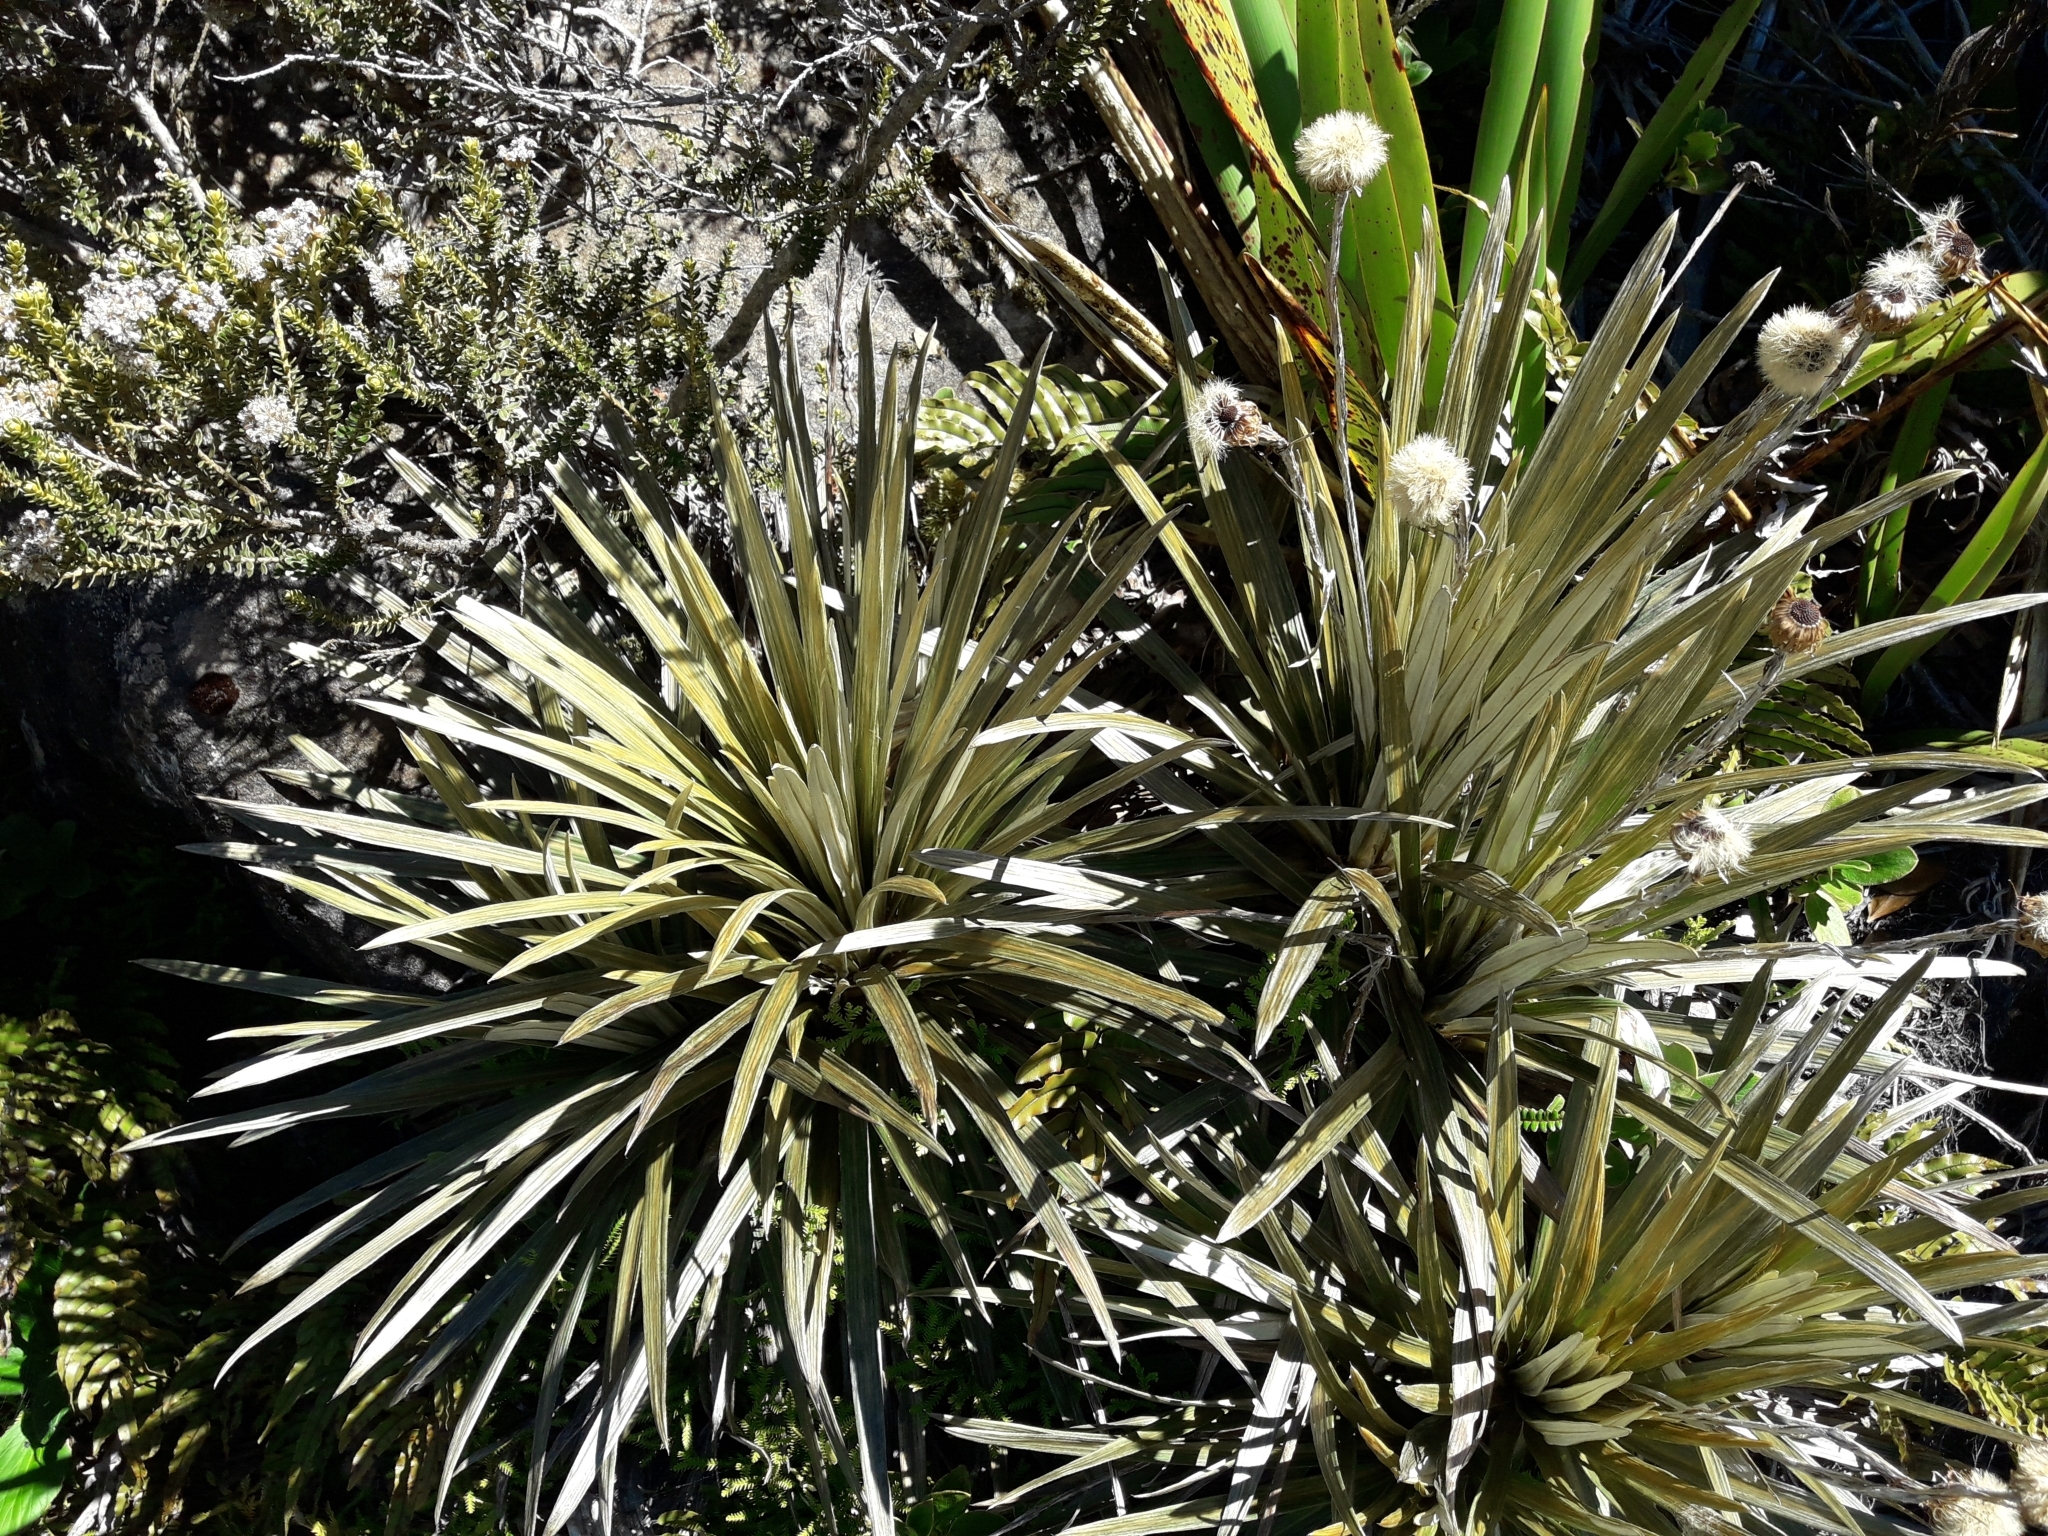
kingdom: Plantae
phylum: Tracheophyta
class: Magnoliopsida
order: Asterales
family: Asteraceae
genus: Celmisia
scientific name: Celmisia armstrongii
